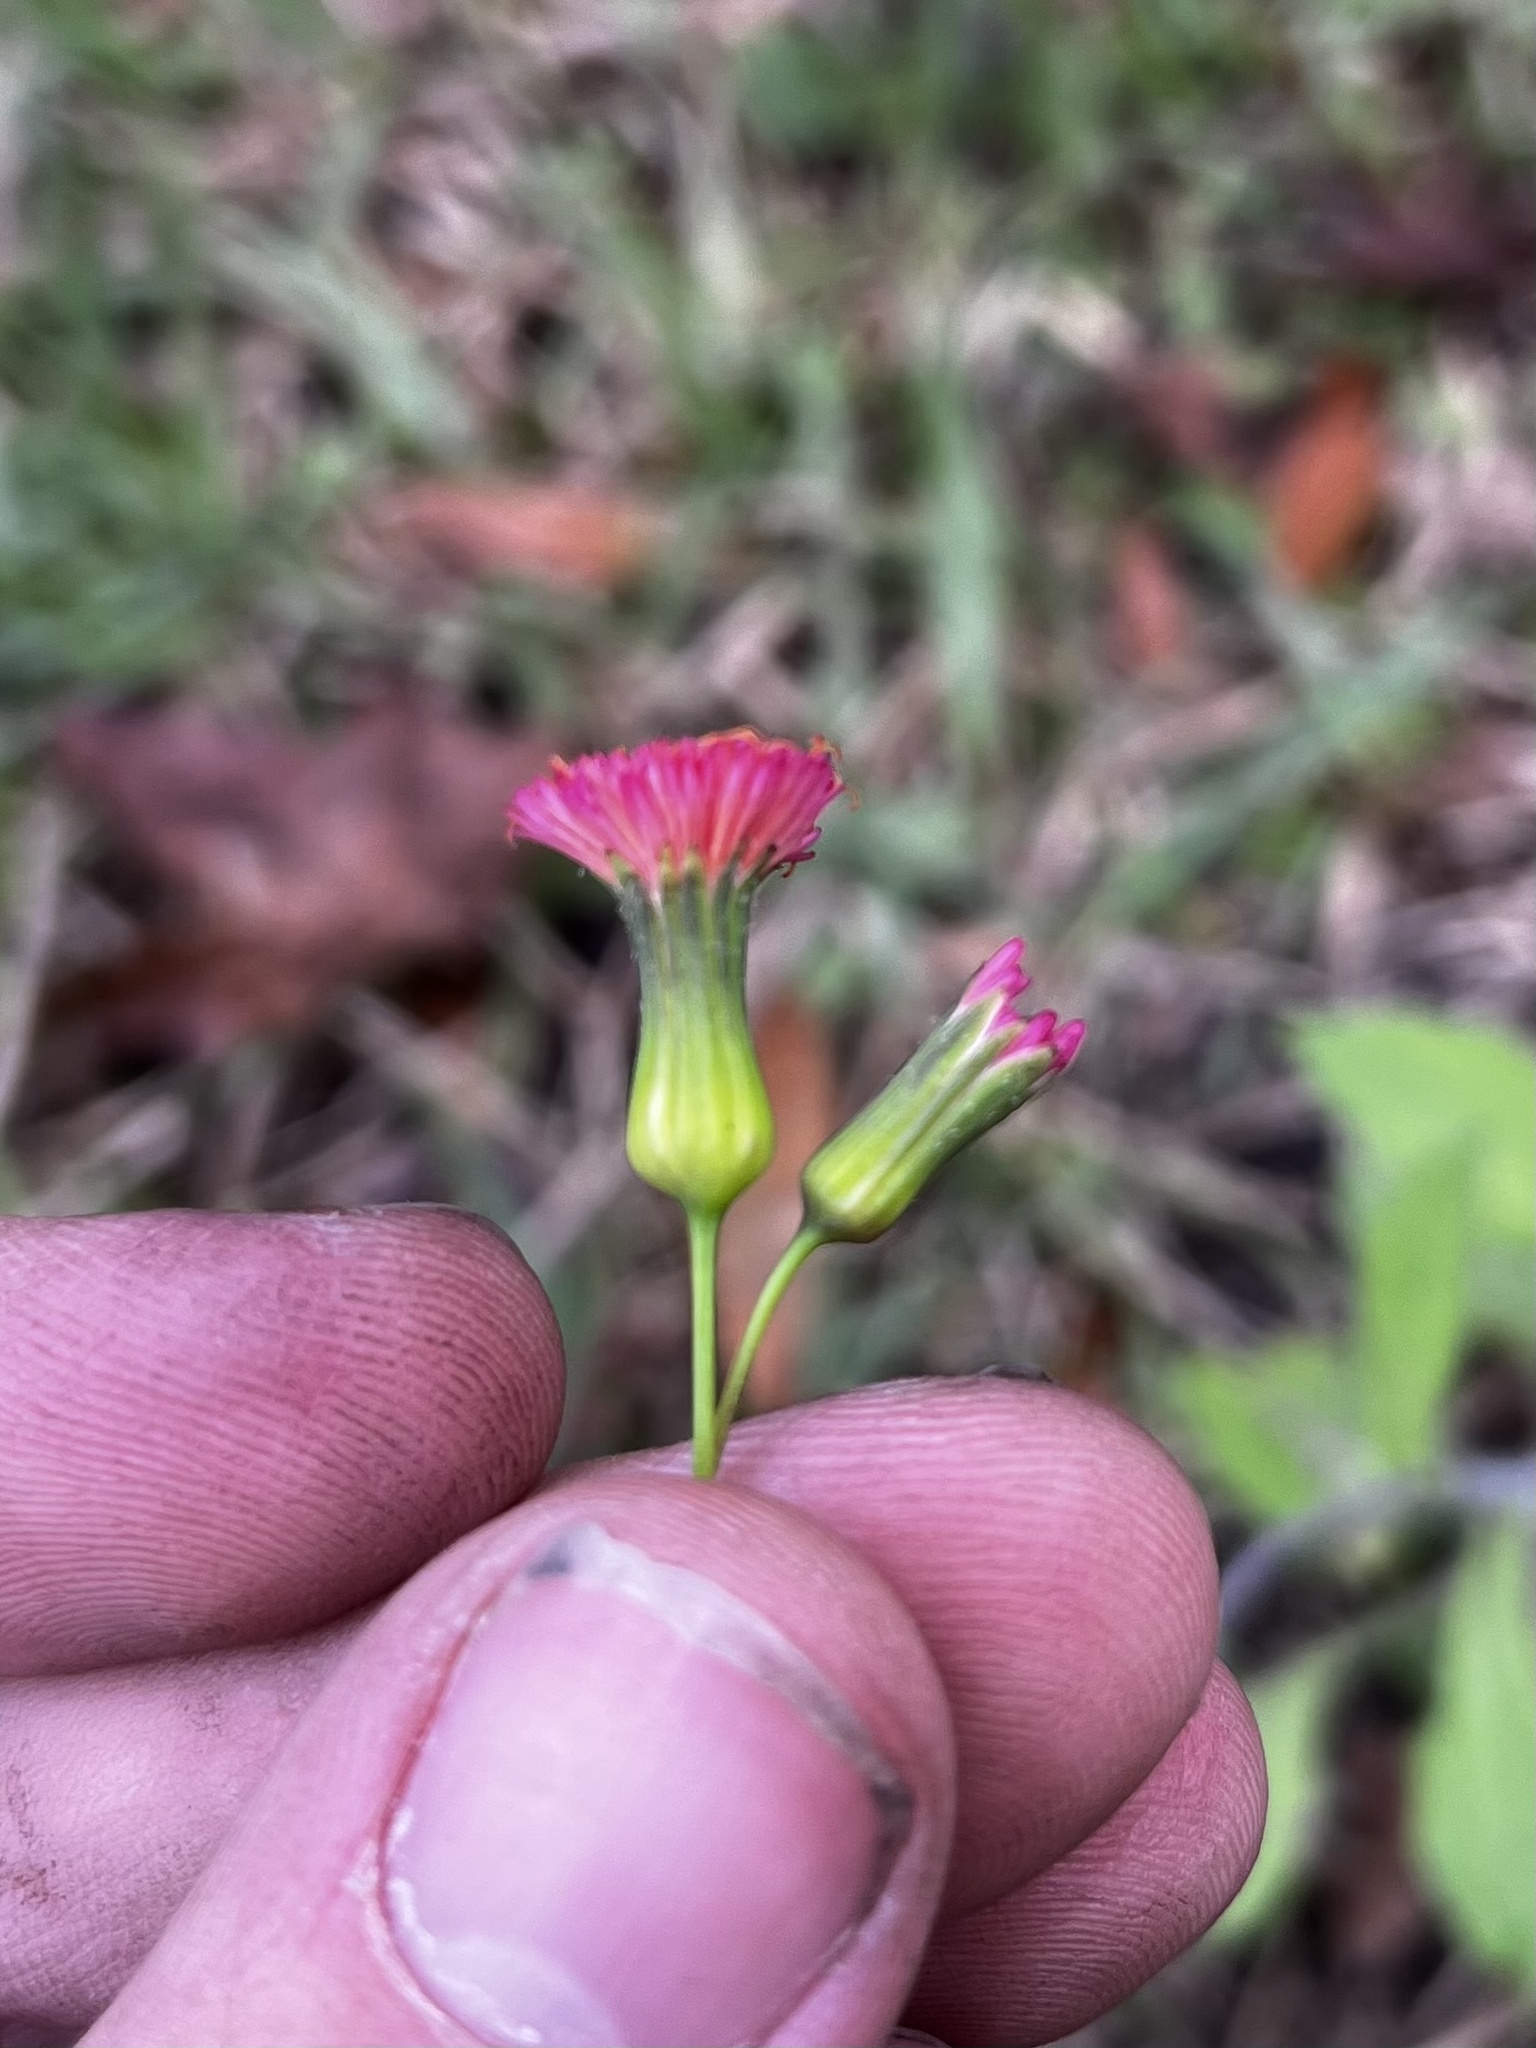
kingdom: Plantae
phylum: Tracheophyta
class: Magnoliopsida
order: Asterales
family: Asteraceae
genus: Emilia
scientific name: Emilia fosbergii
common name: Florida tasselflower
